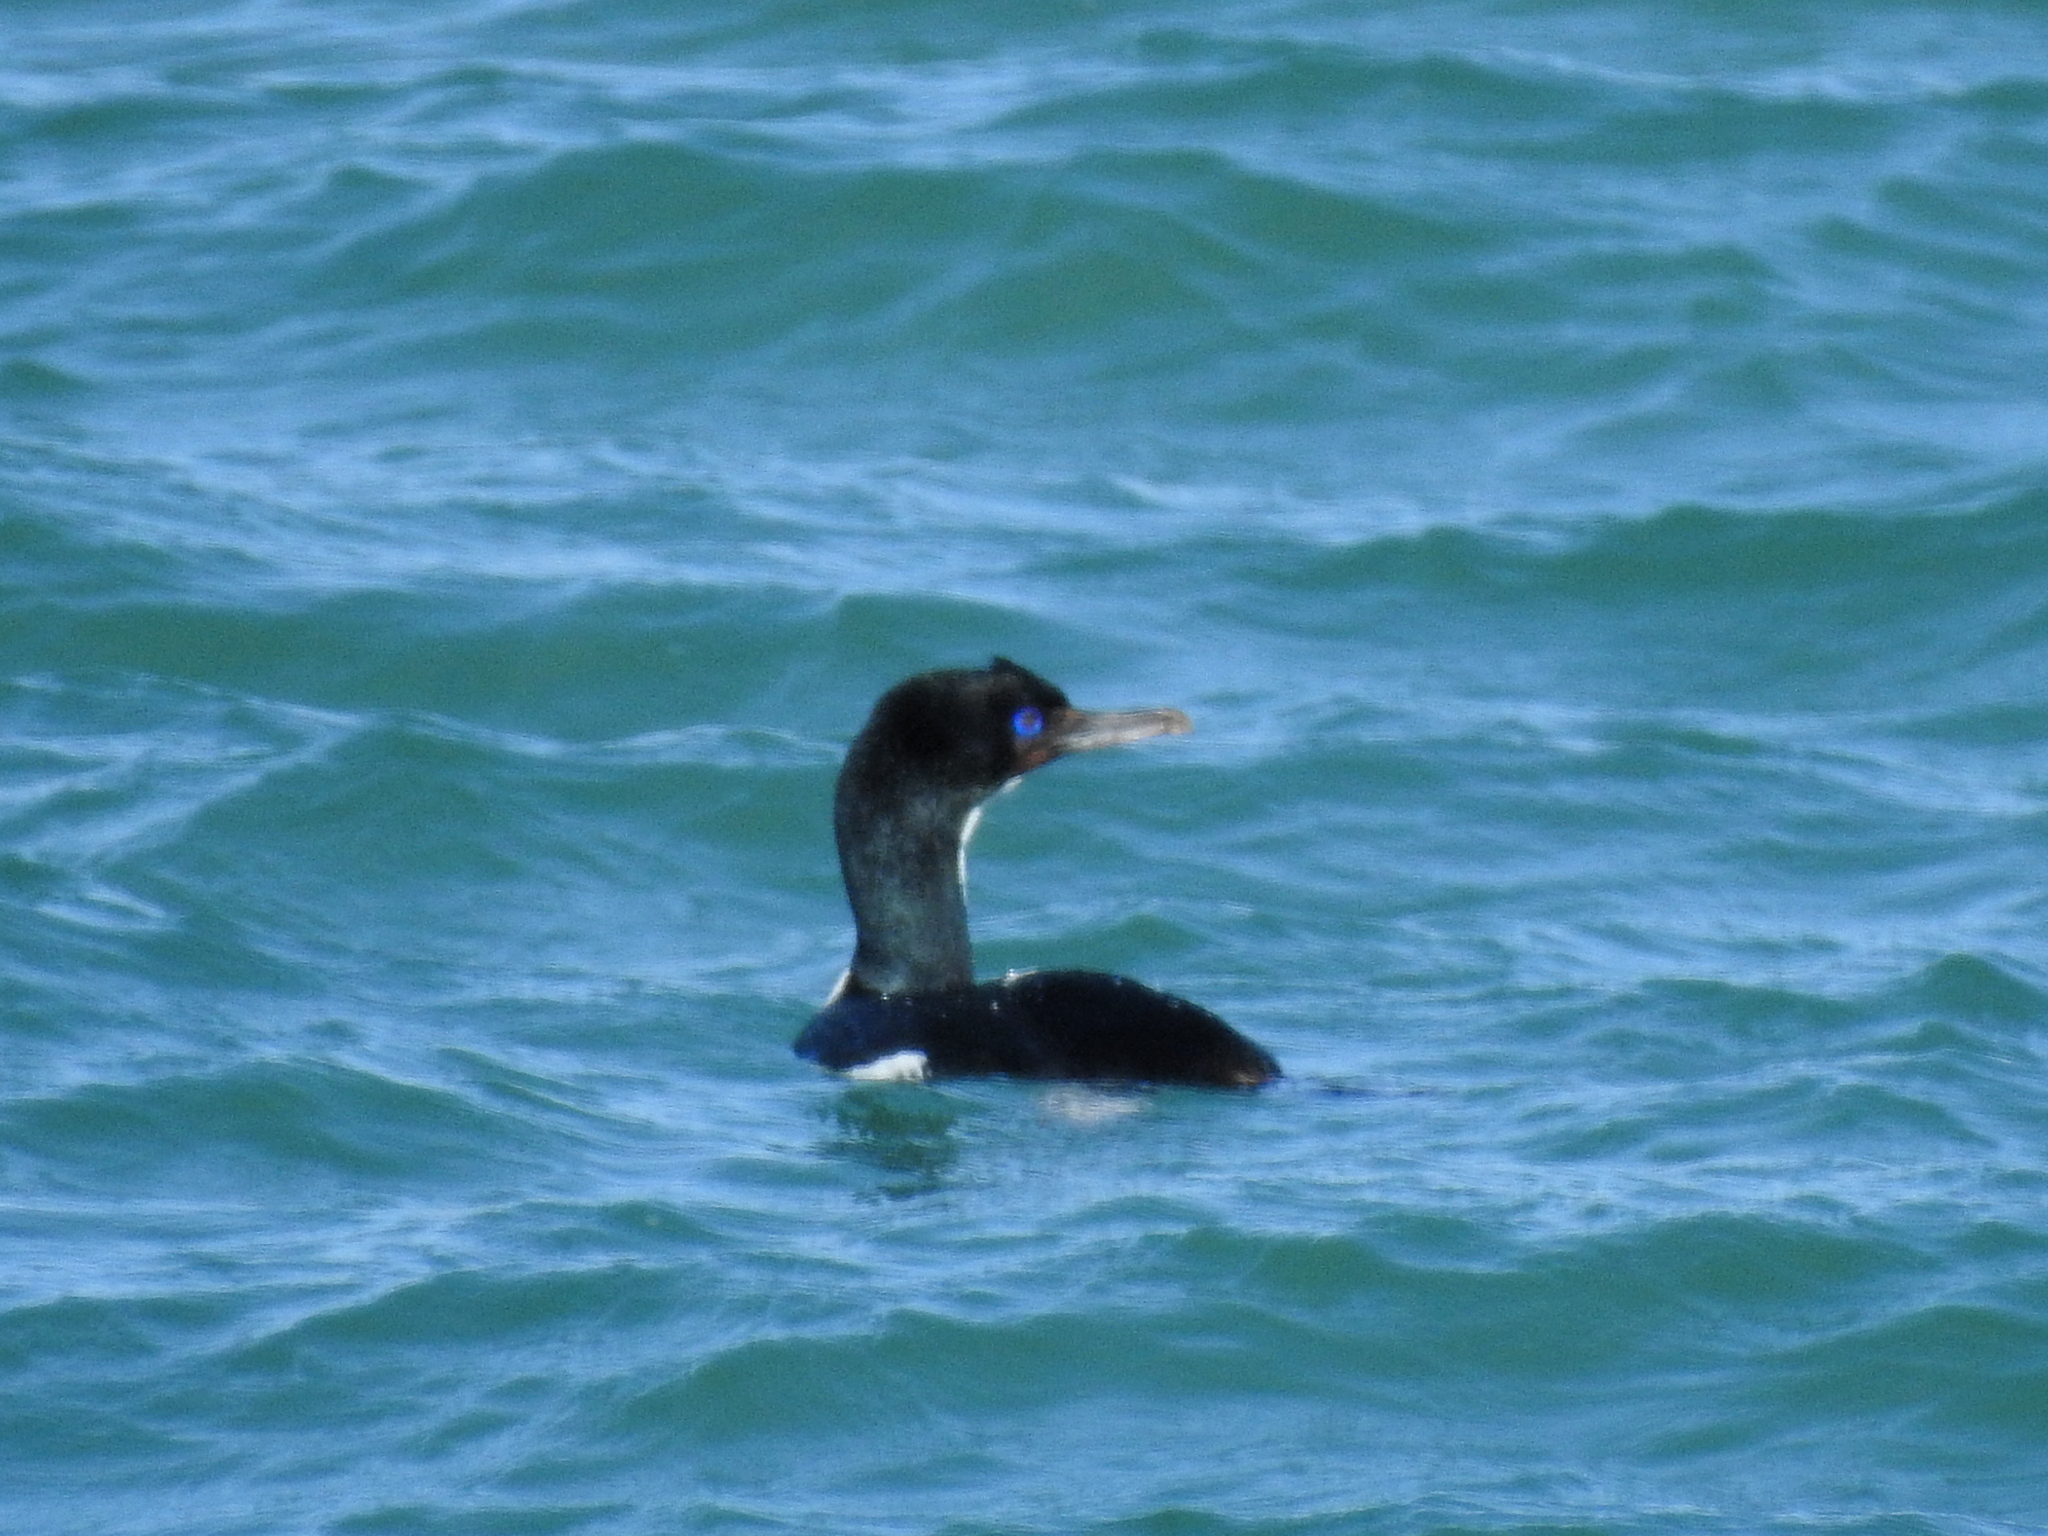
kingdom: Animalia
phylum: Chordata
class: Aves
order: Suliformes
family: Phalacrocoracidae
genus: Leucocarbo
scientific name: Leucocarbo chalconotus
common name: Stewart shag
